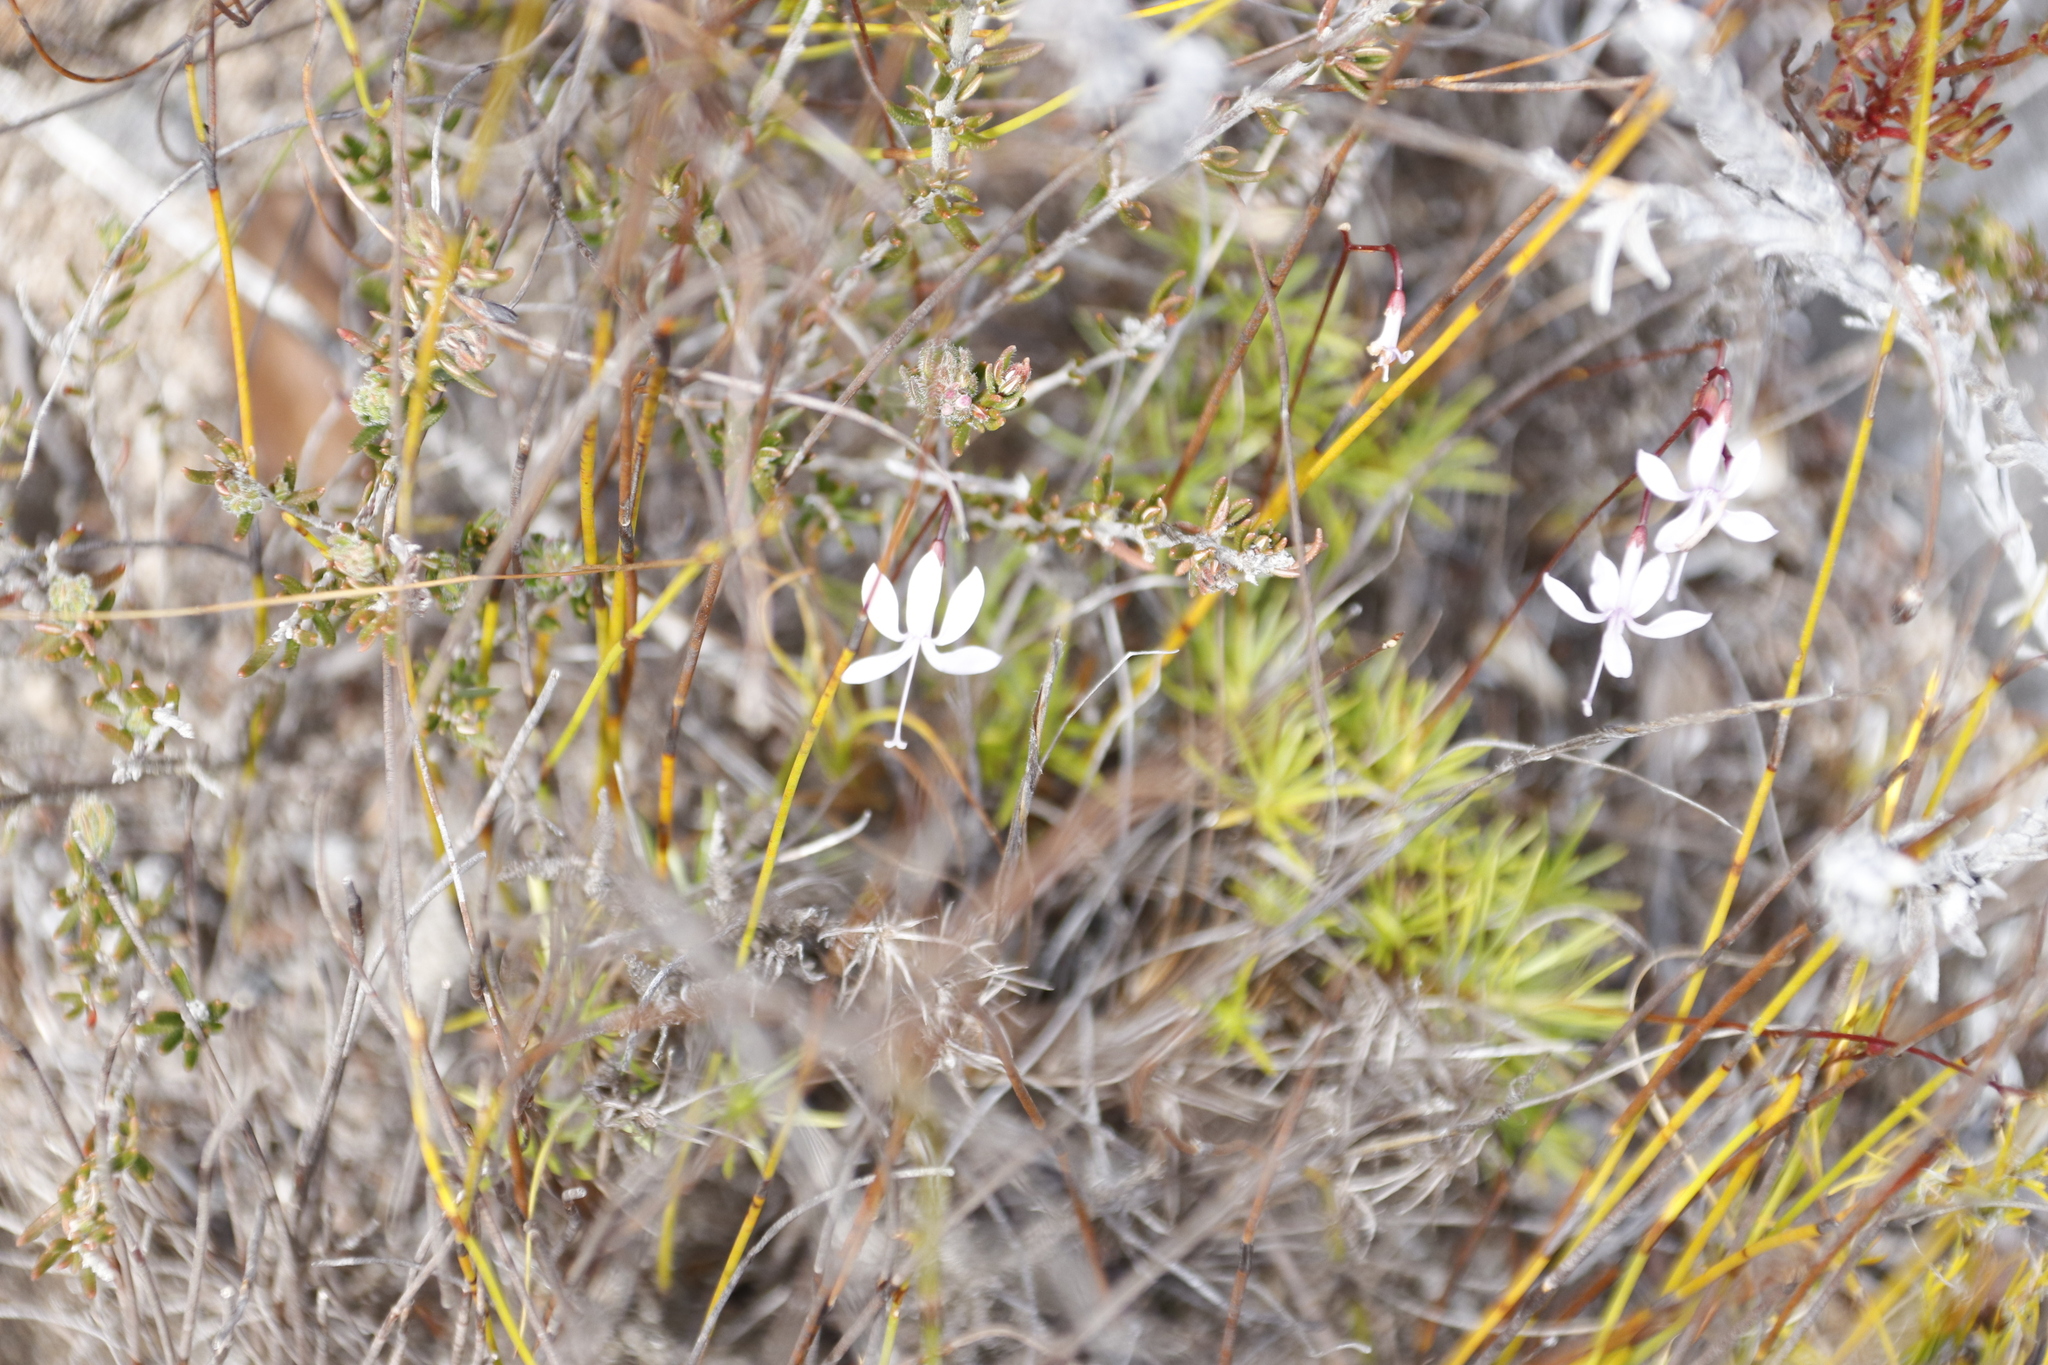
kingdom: Plantae
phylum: Tracheophyta
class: Magnoliopsida
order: Asterales
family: Campanulaceae
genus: Prismatocarpus
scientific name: Prismatocarpus diffusus
